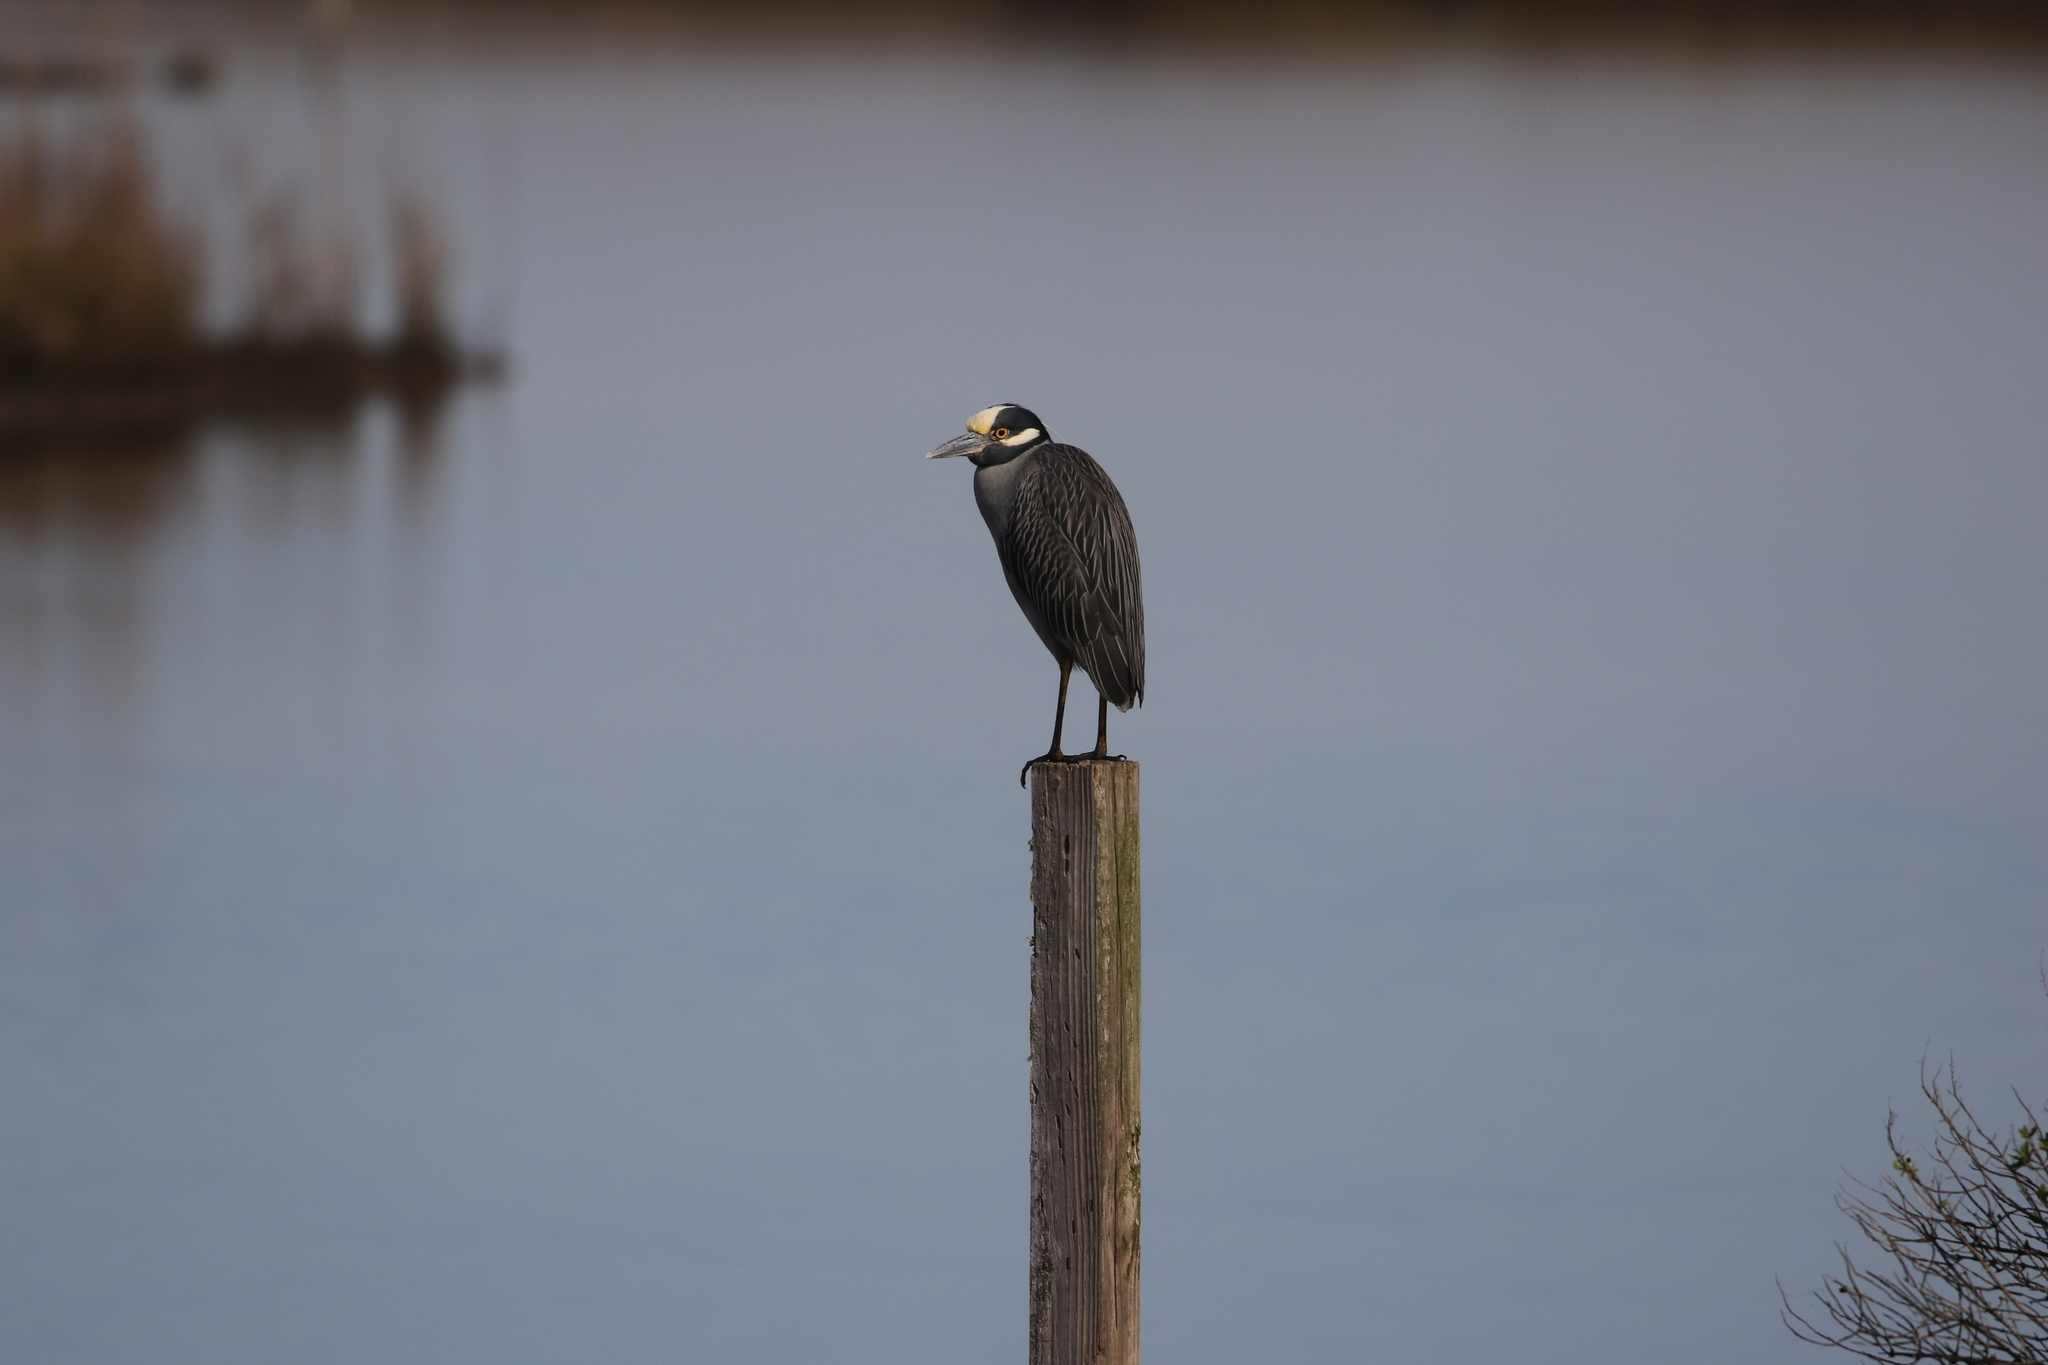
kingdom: Animalia
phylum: Chordata
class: Aves
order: Pelecaniformes
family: Ardeidae
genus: Nyctanassa
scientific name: Nyctanassa violacea
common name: Yellow-crowned night heron
